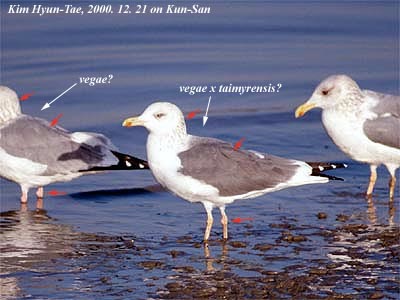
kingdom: Animalia
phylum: Chordata
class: Aves
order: Charadriiformes
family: Laridae
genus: Larus
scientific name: Larus fuscus
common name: Lesser black-backed gull
